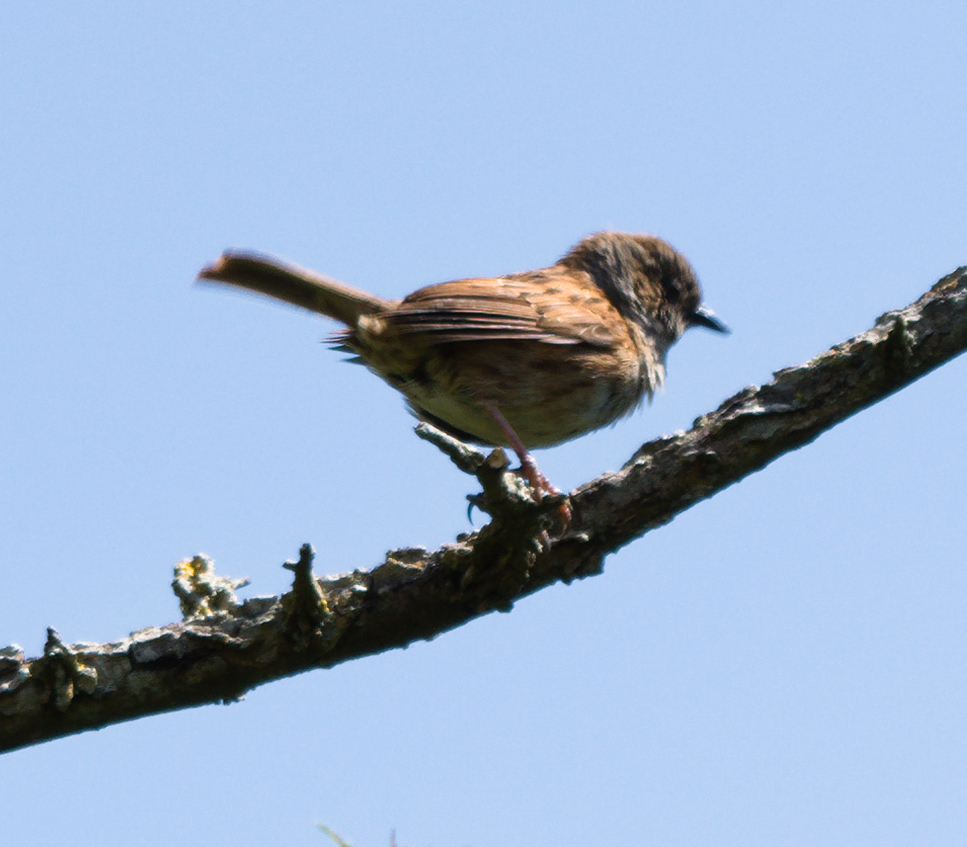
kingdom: Animalia
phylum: Chordata
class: Aves
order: Passeriformes
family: Prunellidae
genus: Prunella
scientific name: Prunella modularis
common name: Dunnock
